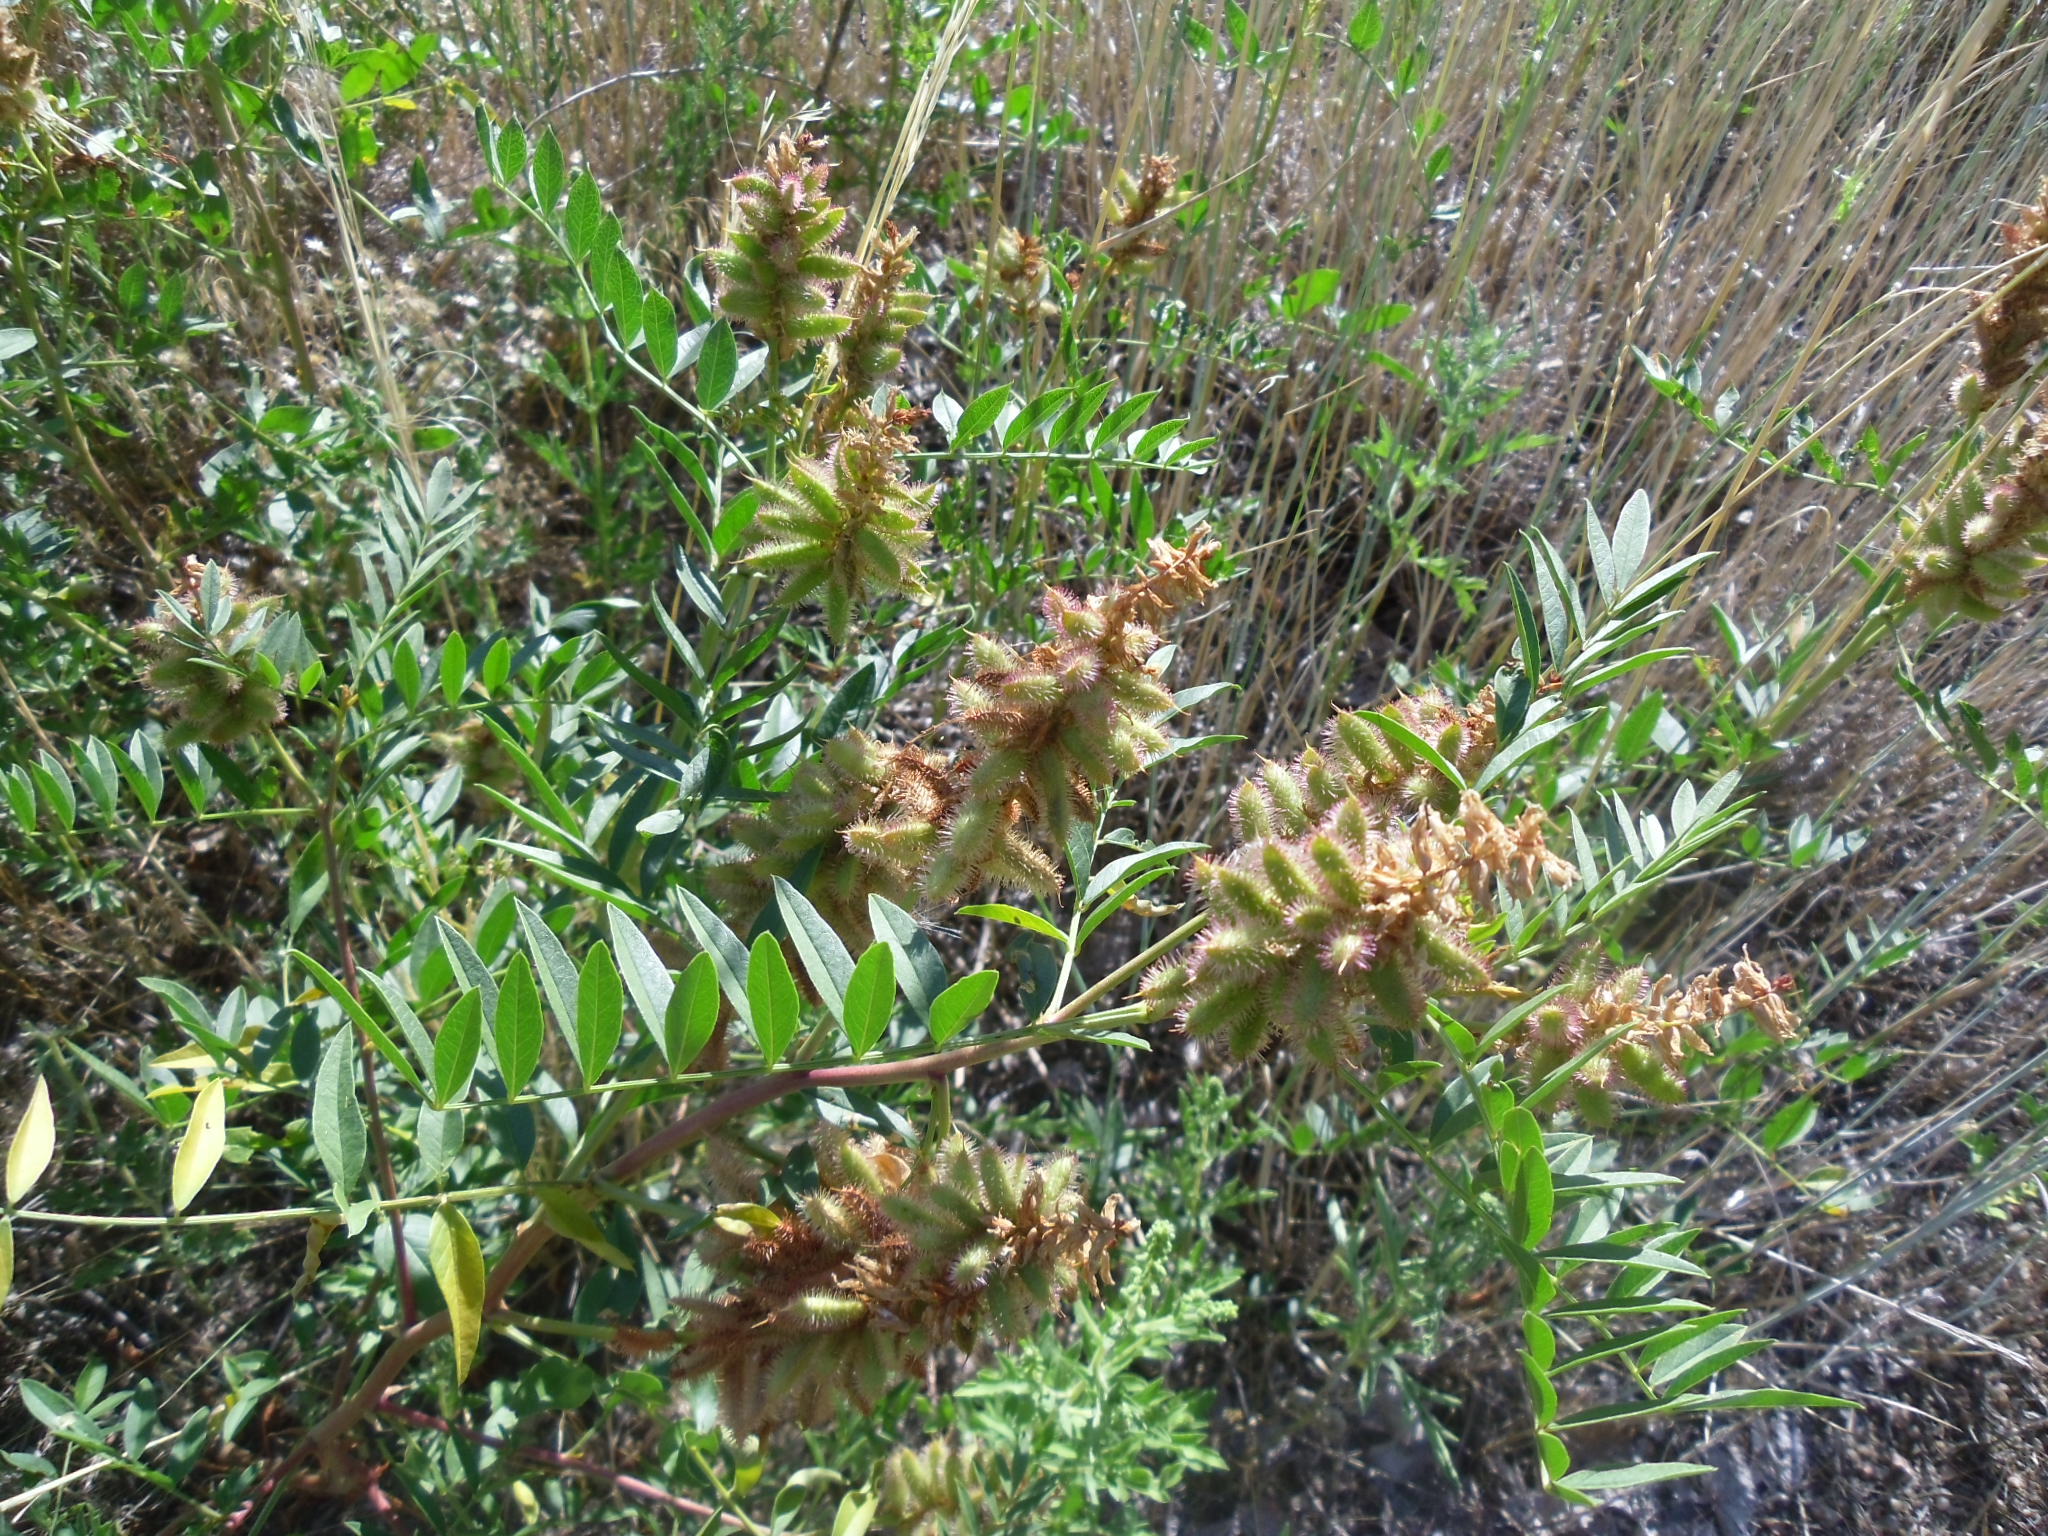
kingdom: Plantae
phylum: Tracheophyta
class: Magnoliopsida
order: Fabales
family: Fabaceae
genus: Glycyrrhiza
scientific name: Glycyrrhiza lepidota
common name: American liquorice
